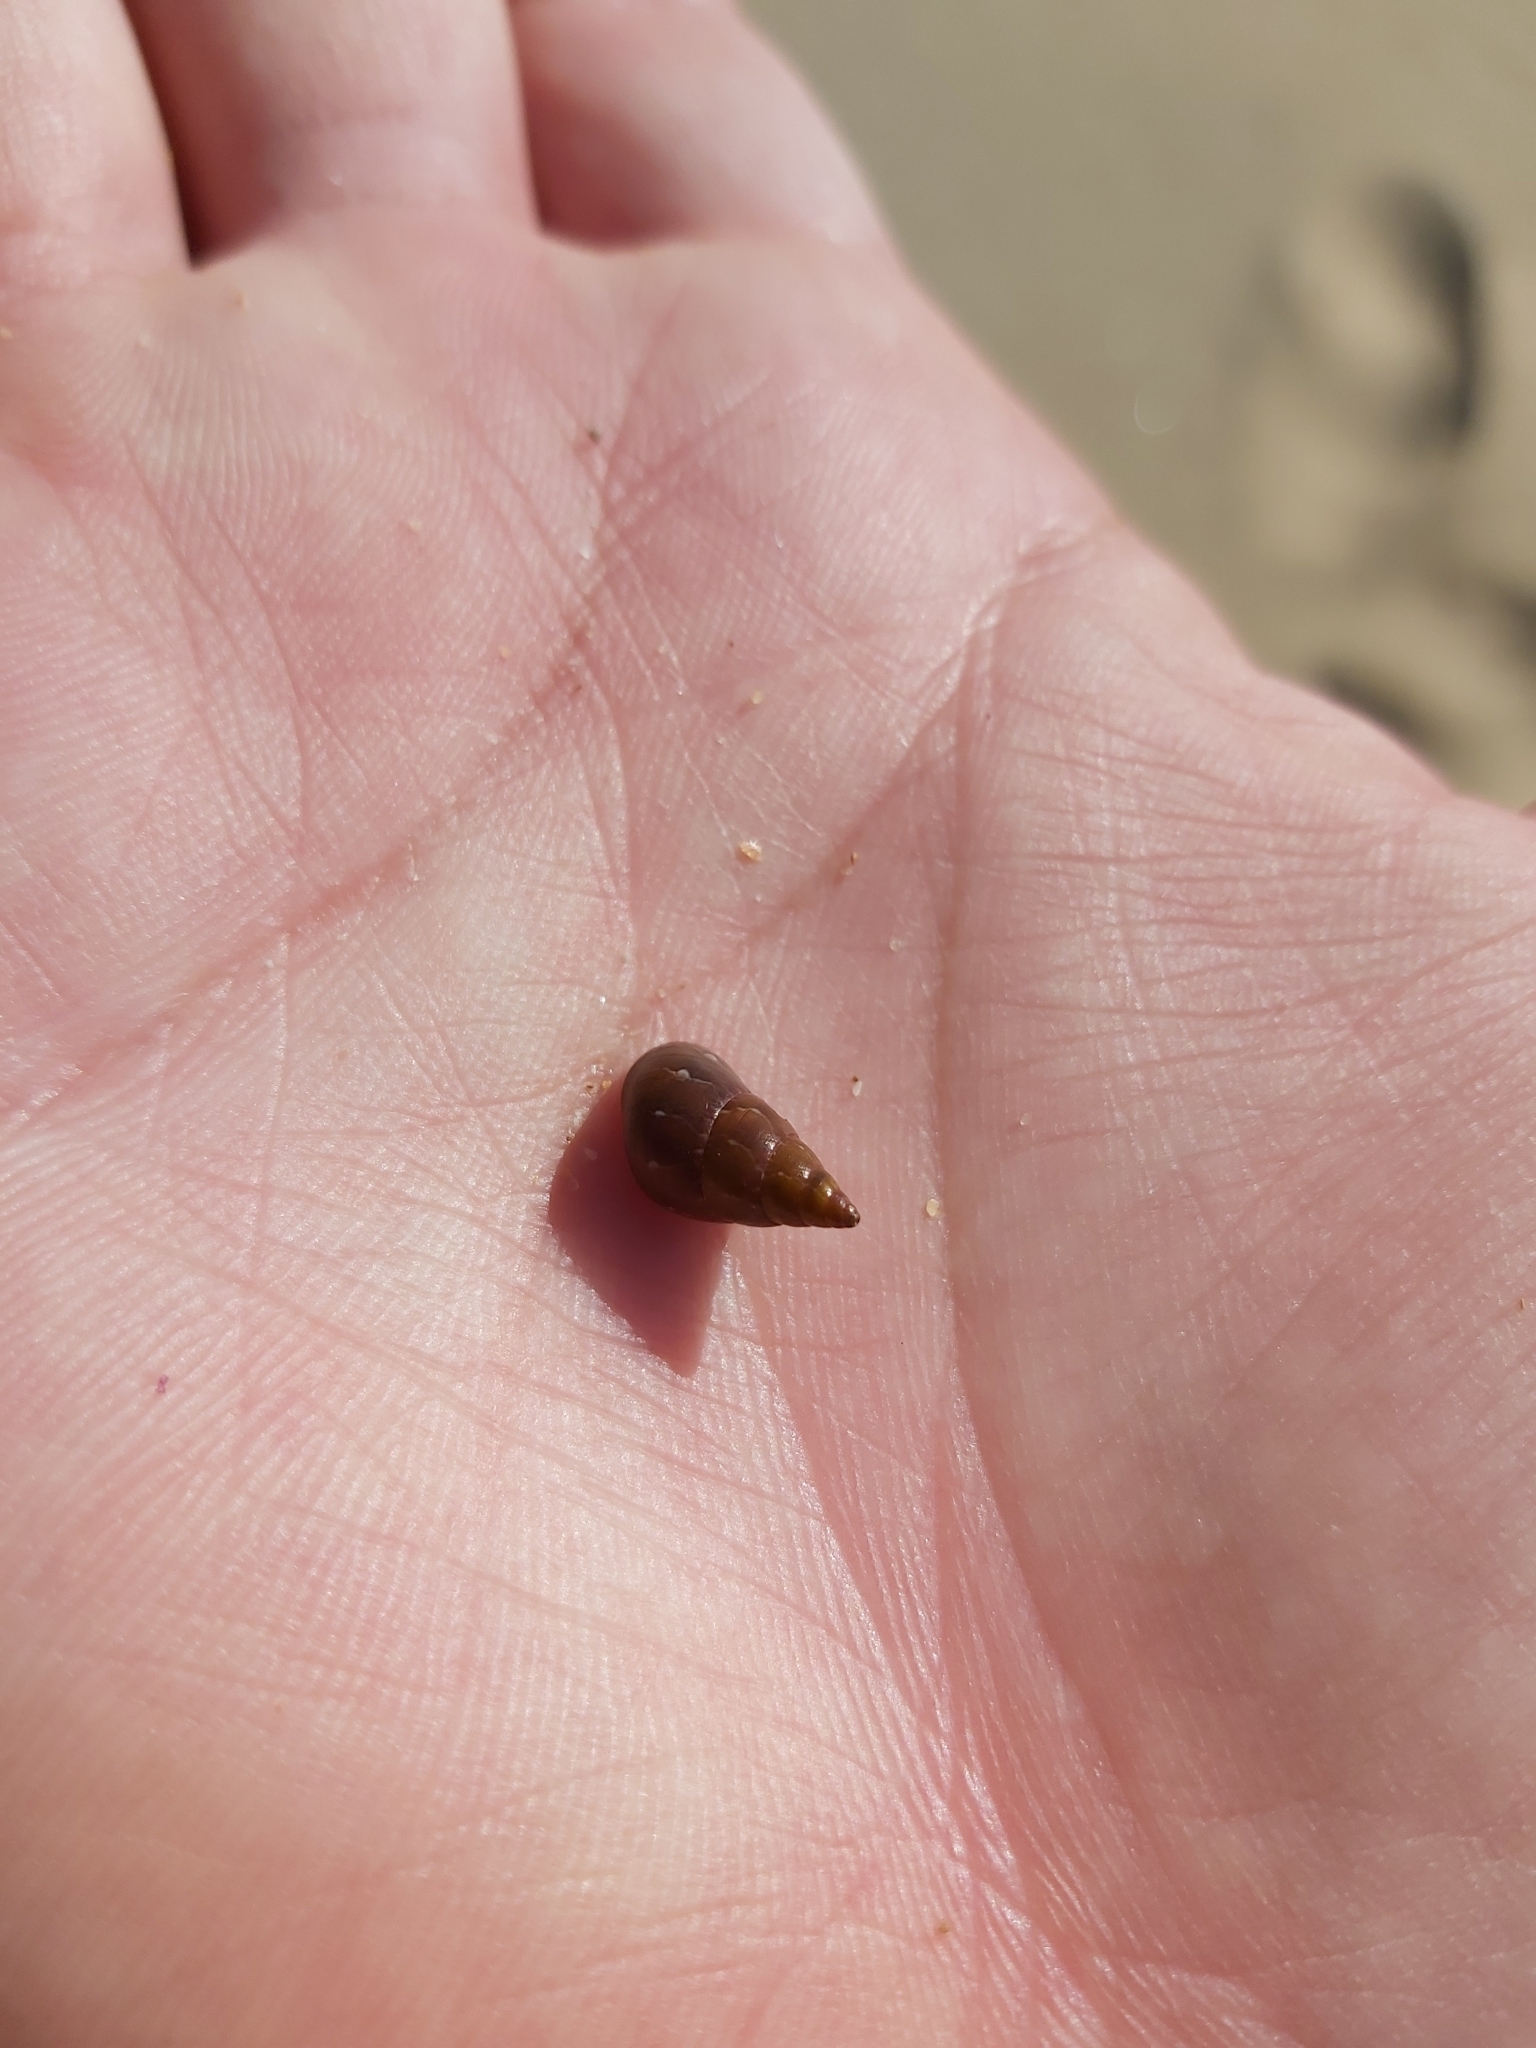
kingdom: Animalia
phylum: Mollusca
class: Gastropoda
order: Trochida
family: Trochidae
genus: Phasianotrochus
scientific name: Phasianotrochus eximius
